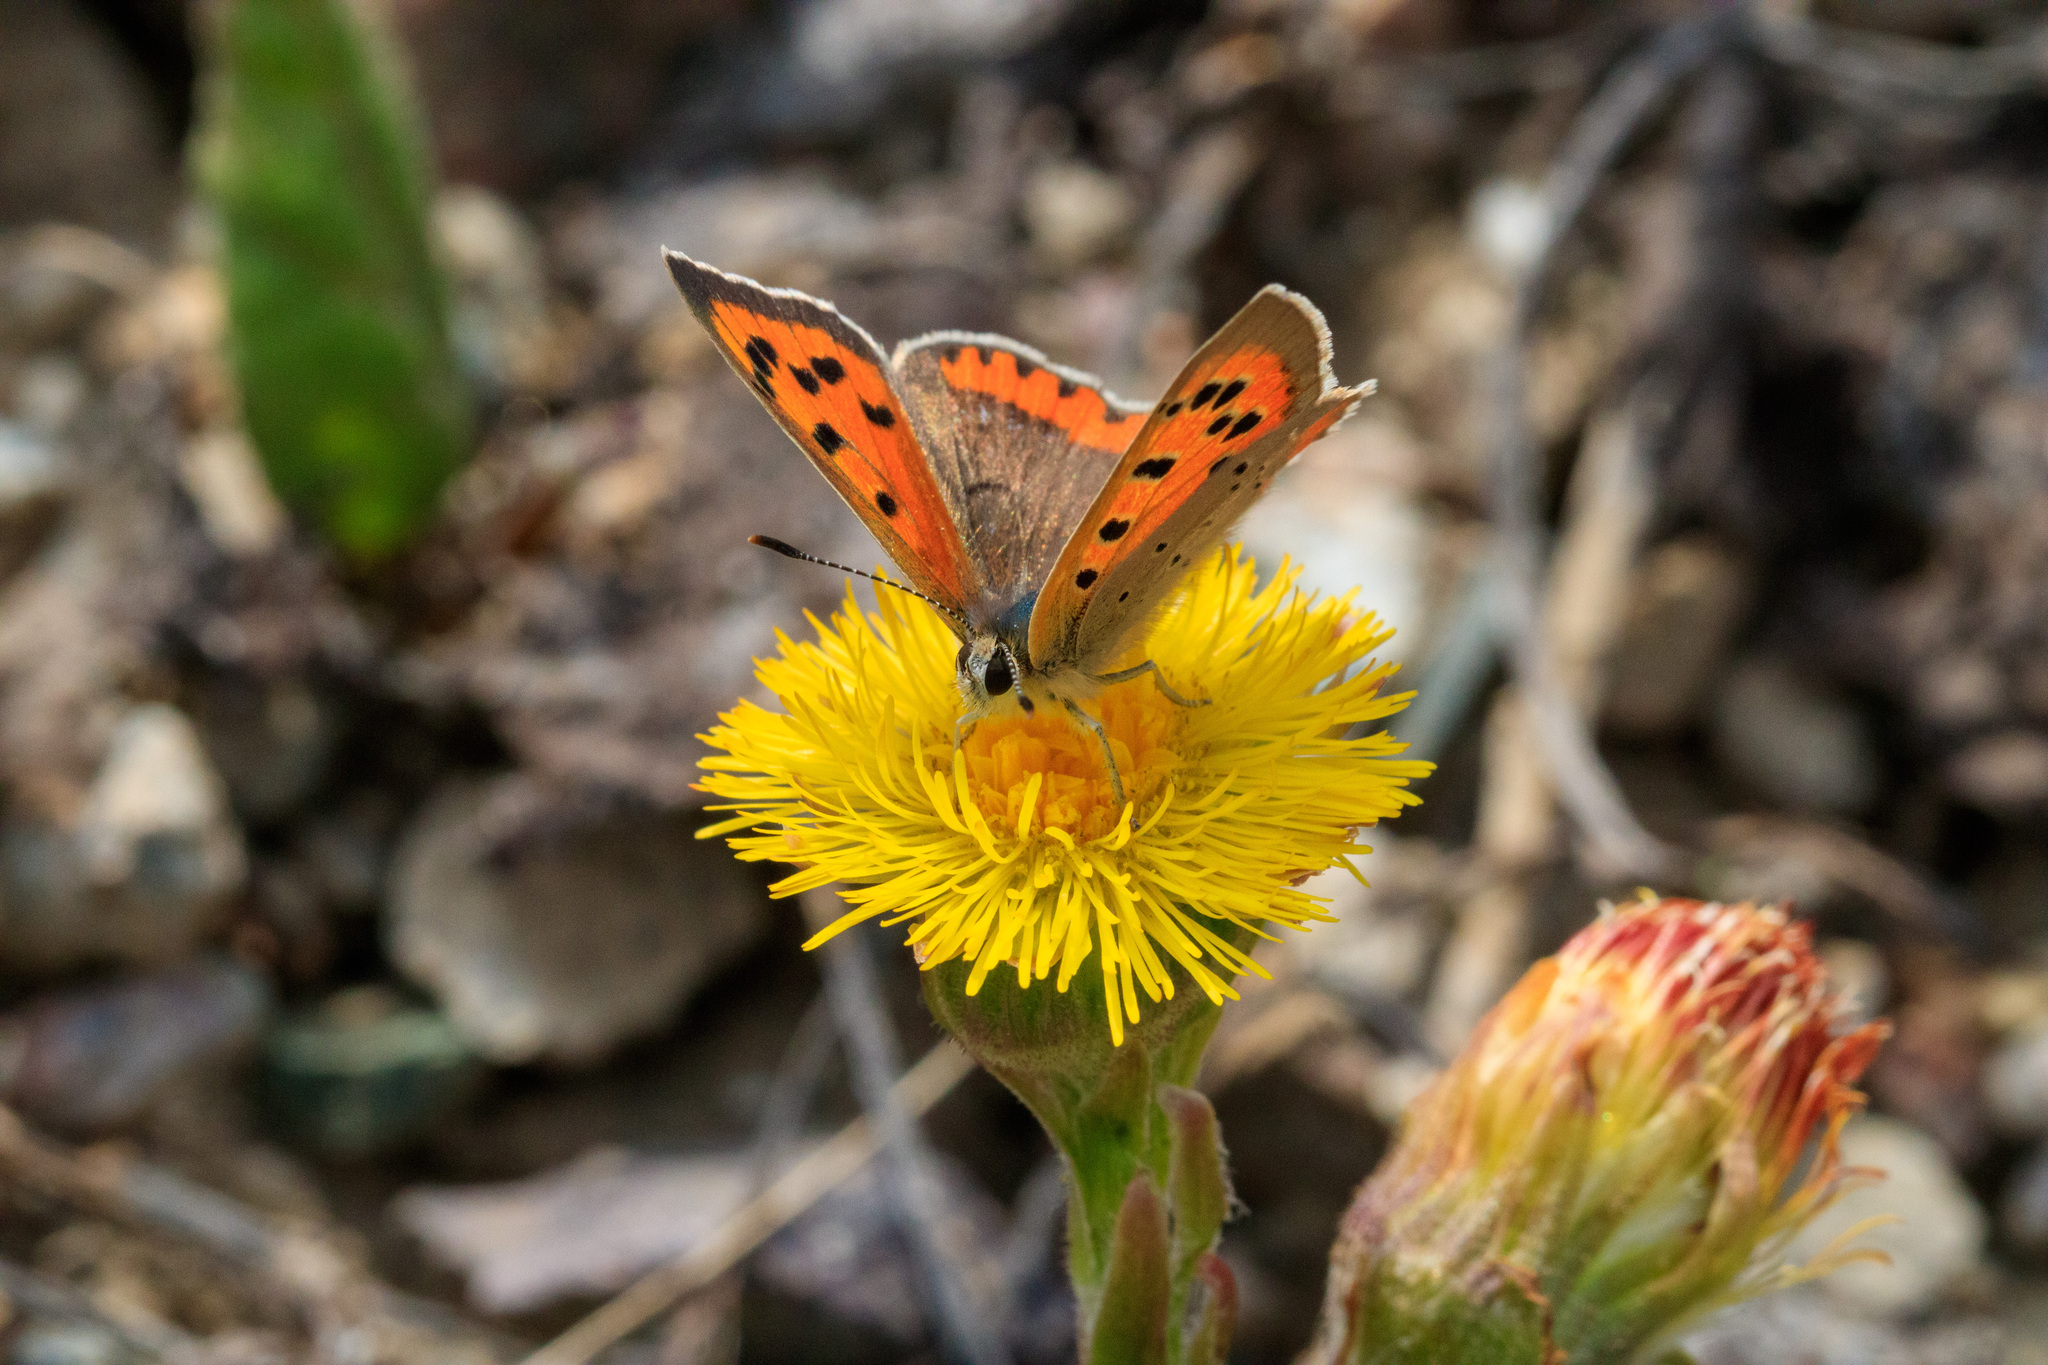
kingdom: Animalia
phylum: Arthropoda
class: Insecta
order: Lepidoptera
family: Lycaenidae
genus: Lycaena
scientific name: Lycaena phlaeas
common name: Small copper
